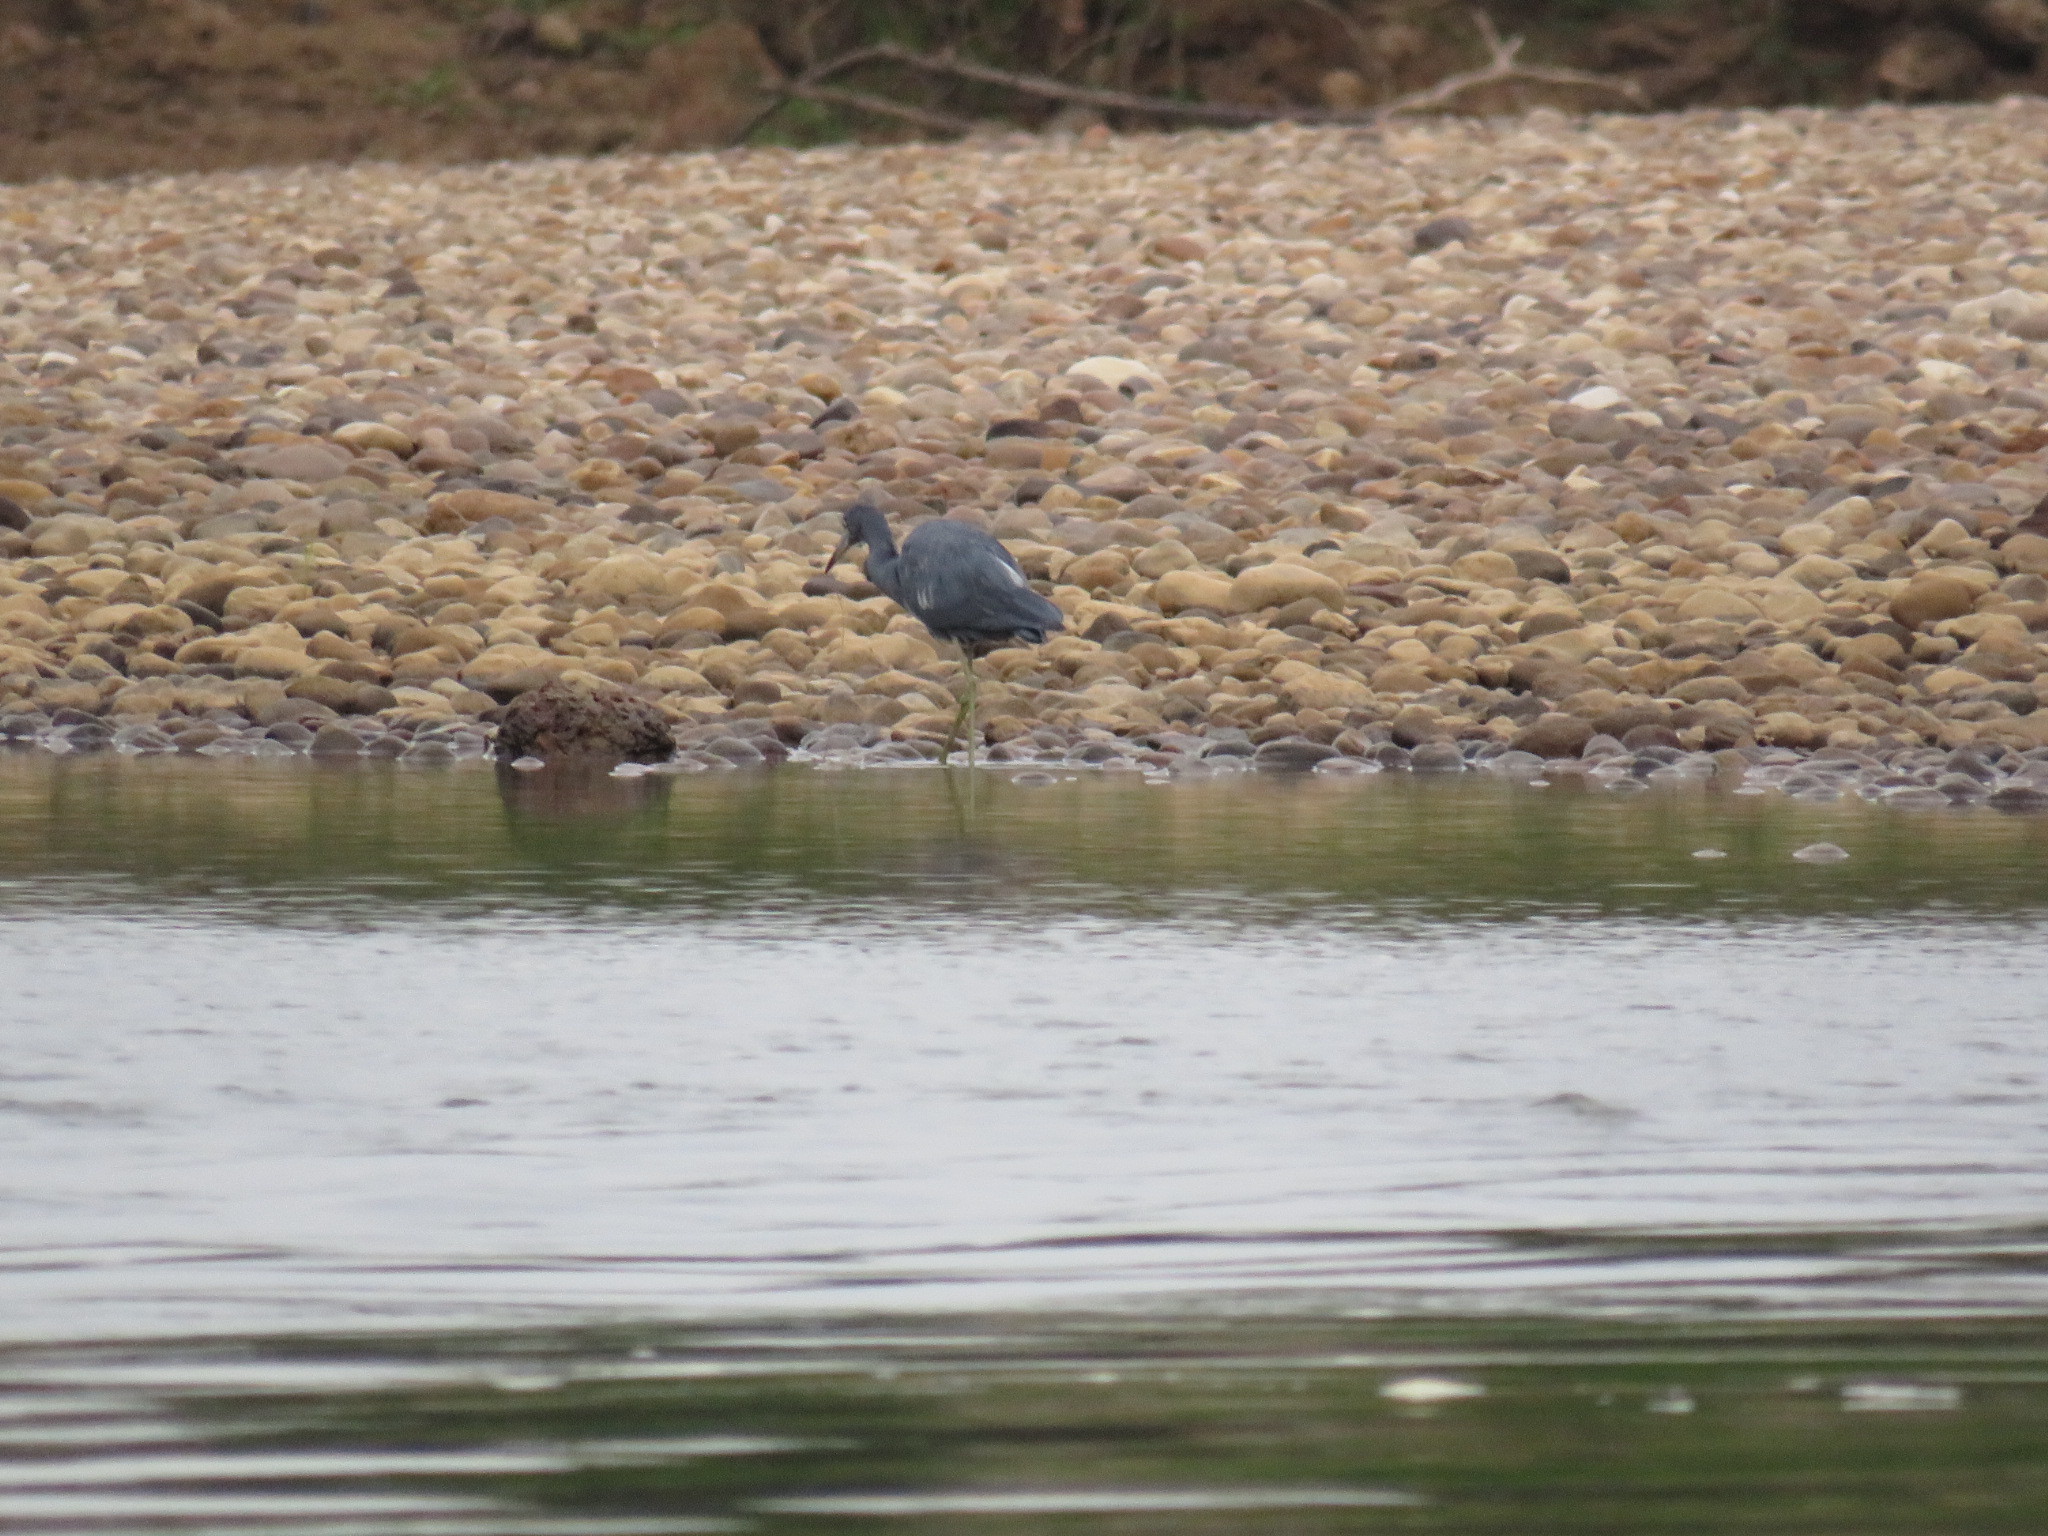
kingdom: Animalia
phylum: Chordata
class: Aves
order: Pelecaniformes
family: Ardeidae
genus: Egretta
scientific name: Egretta caerulea
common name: Little blue heron
